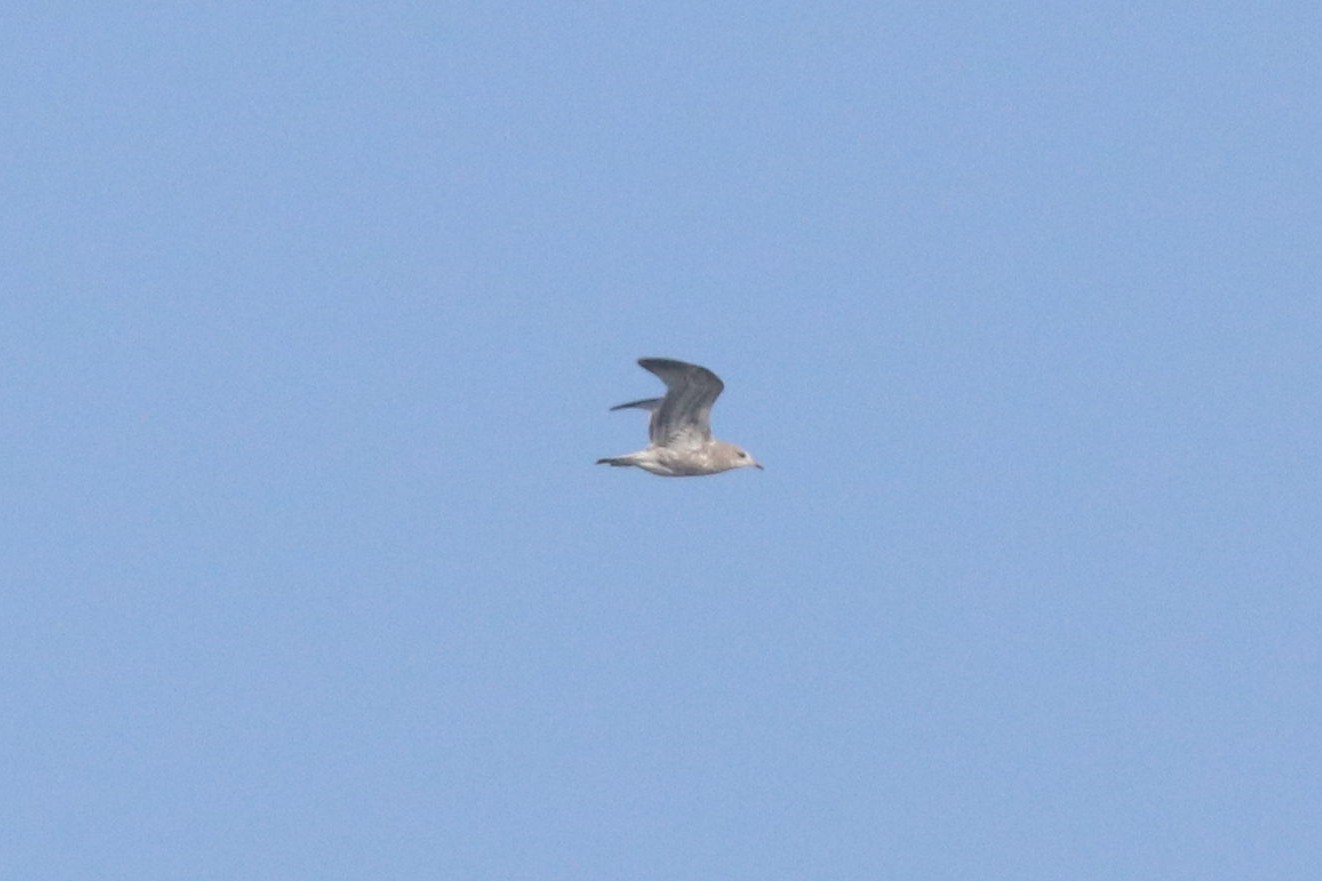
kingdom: Animalia
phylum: Chordata
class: Aves
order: Charadriiformes
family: Laridae
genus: Larus
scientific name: Larus canus
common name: Mew gull
